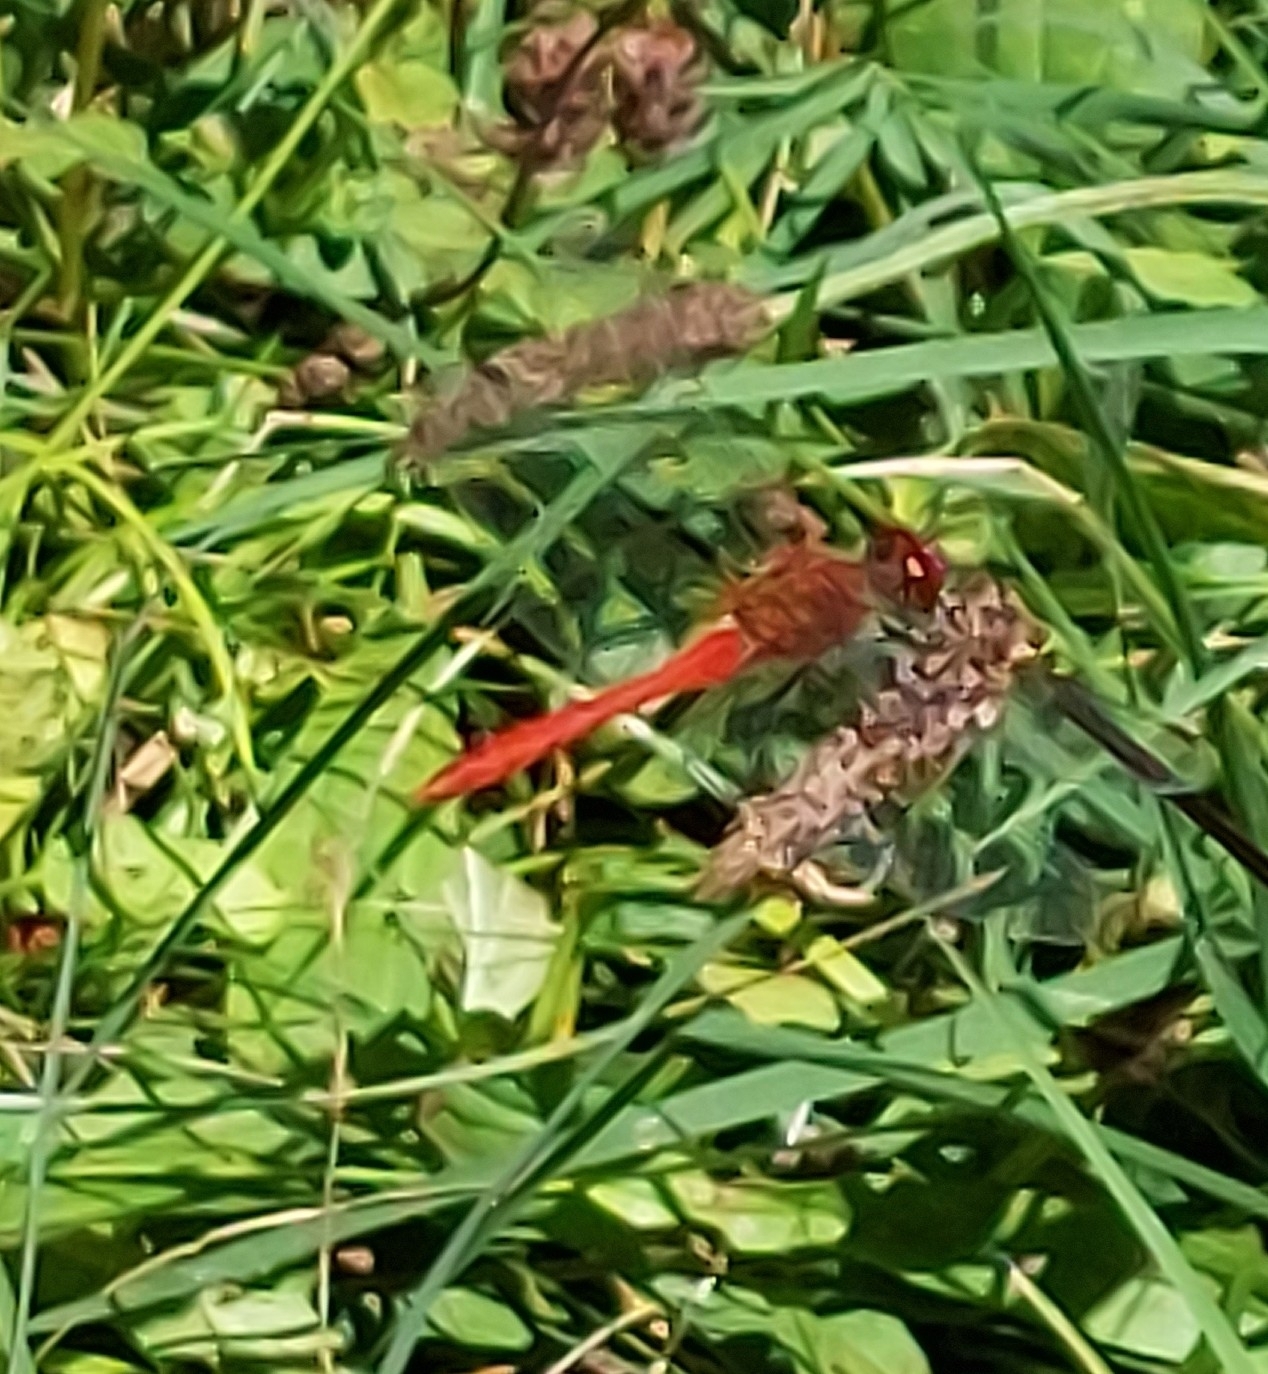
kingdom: Animalia
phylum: Arthropoda
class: Insecta
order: Odonata
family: Libellulidae
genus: Sympetrum
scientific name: Sympetrum sanguineum
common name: Ruddy darter
